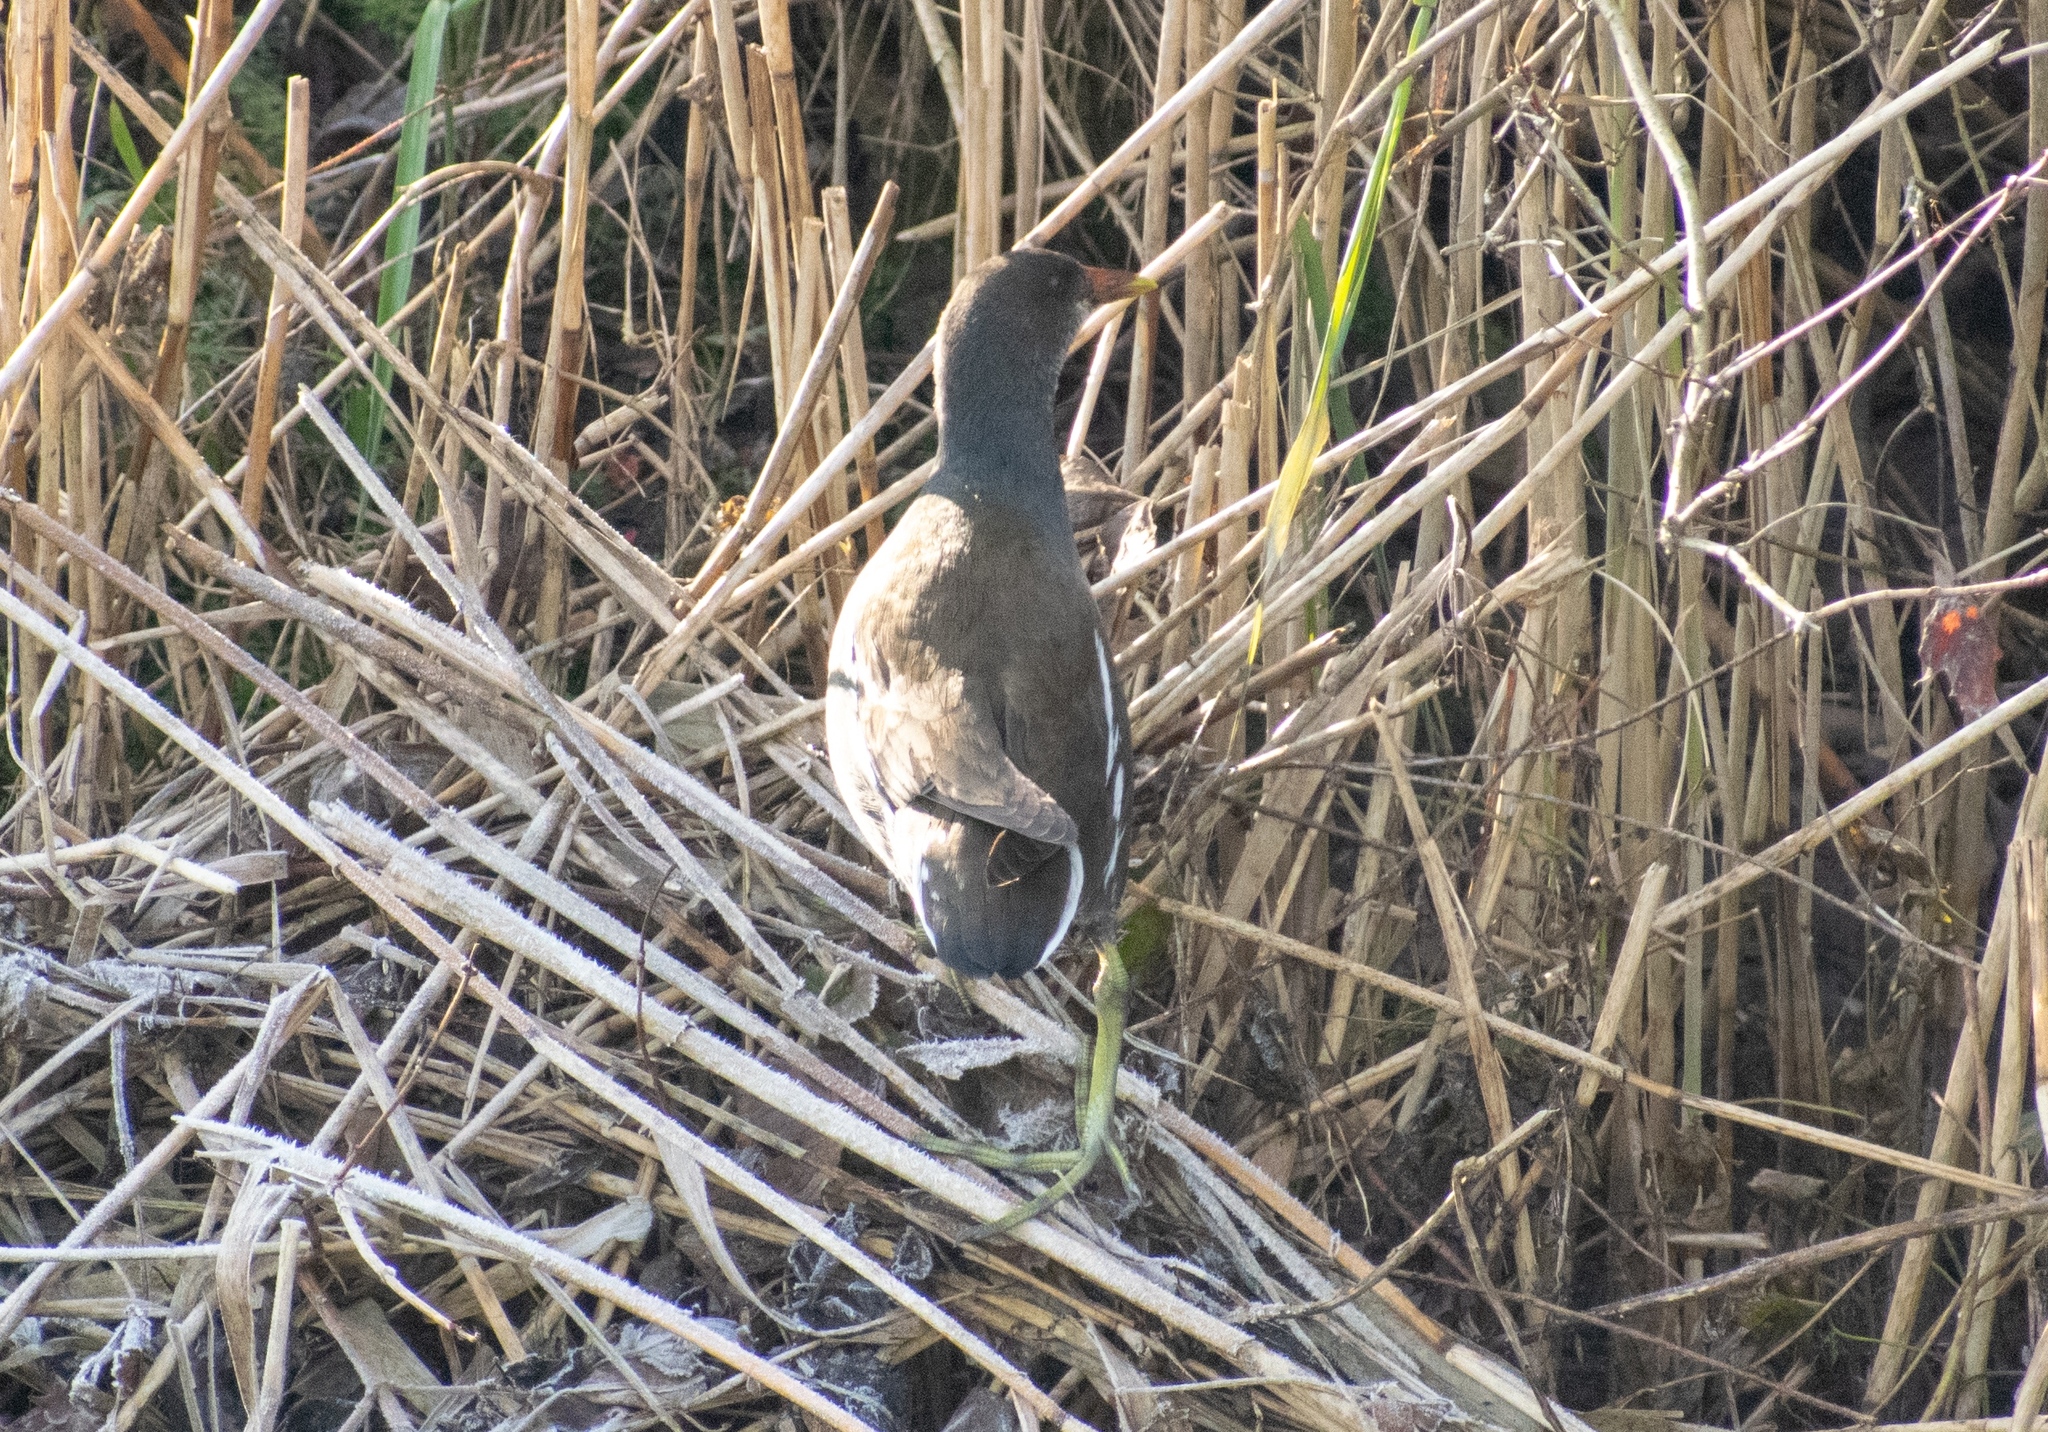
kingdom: Animalia
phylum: Chordata
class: Aves
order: Gruiformes
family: Rallidae
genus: Gallinula
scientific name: Gallinula chloropus
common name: Common moorhen
